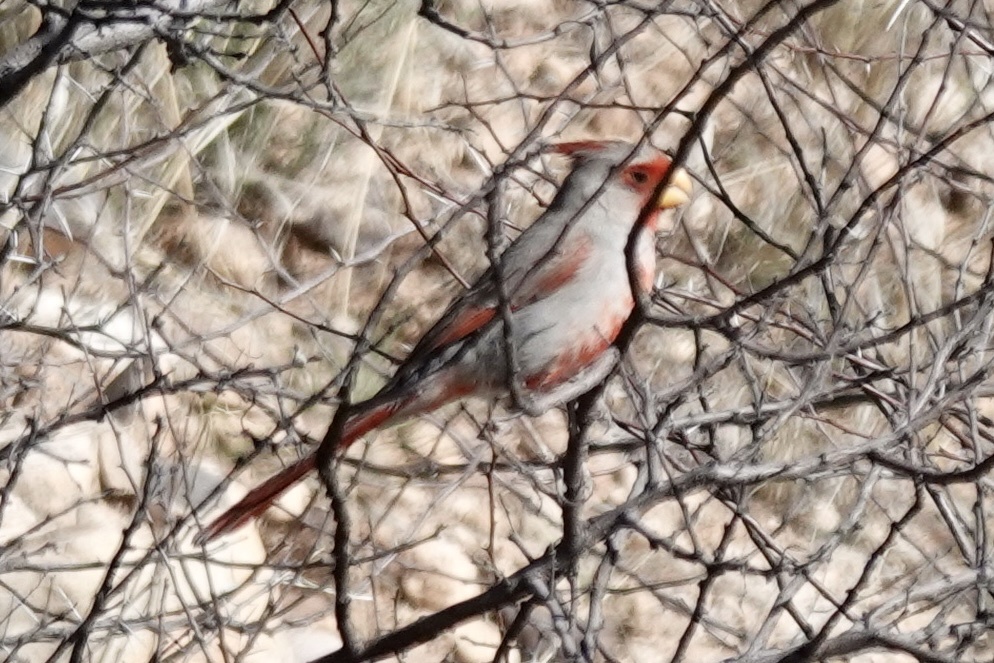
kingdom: Animalia
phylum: Chordata
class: Aves
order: Passeriformes
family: Cardinalidae
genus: Cardinalis
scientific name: Cardinalis sinuatus
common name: Pyrrhuloxia
